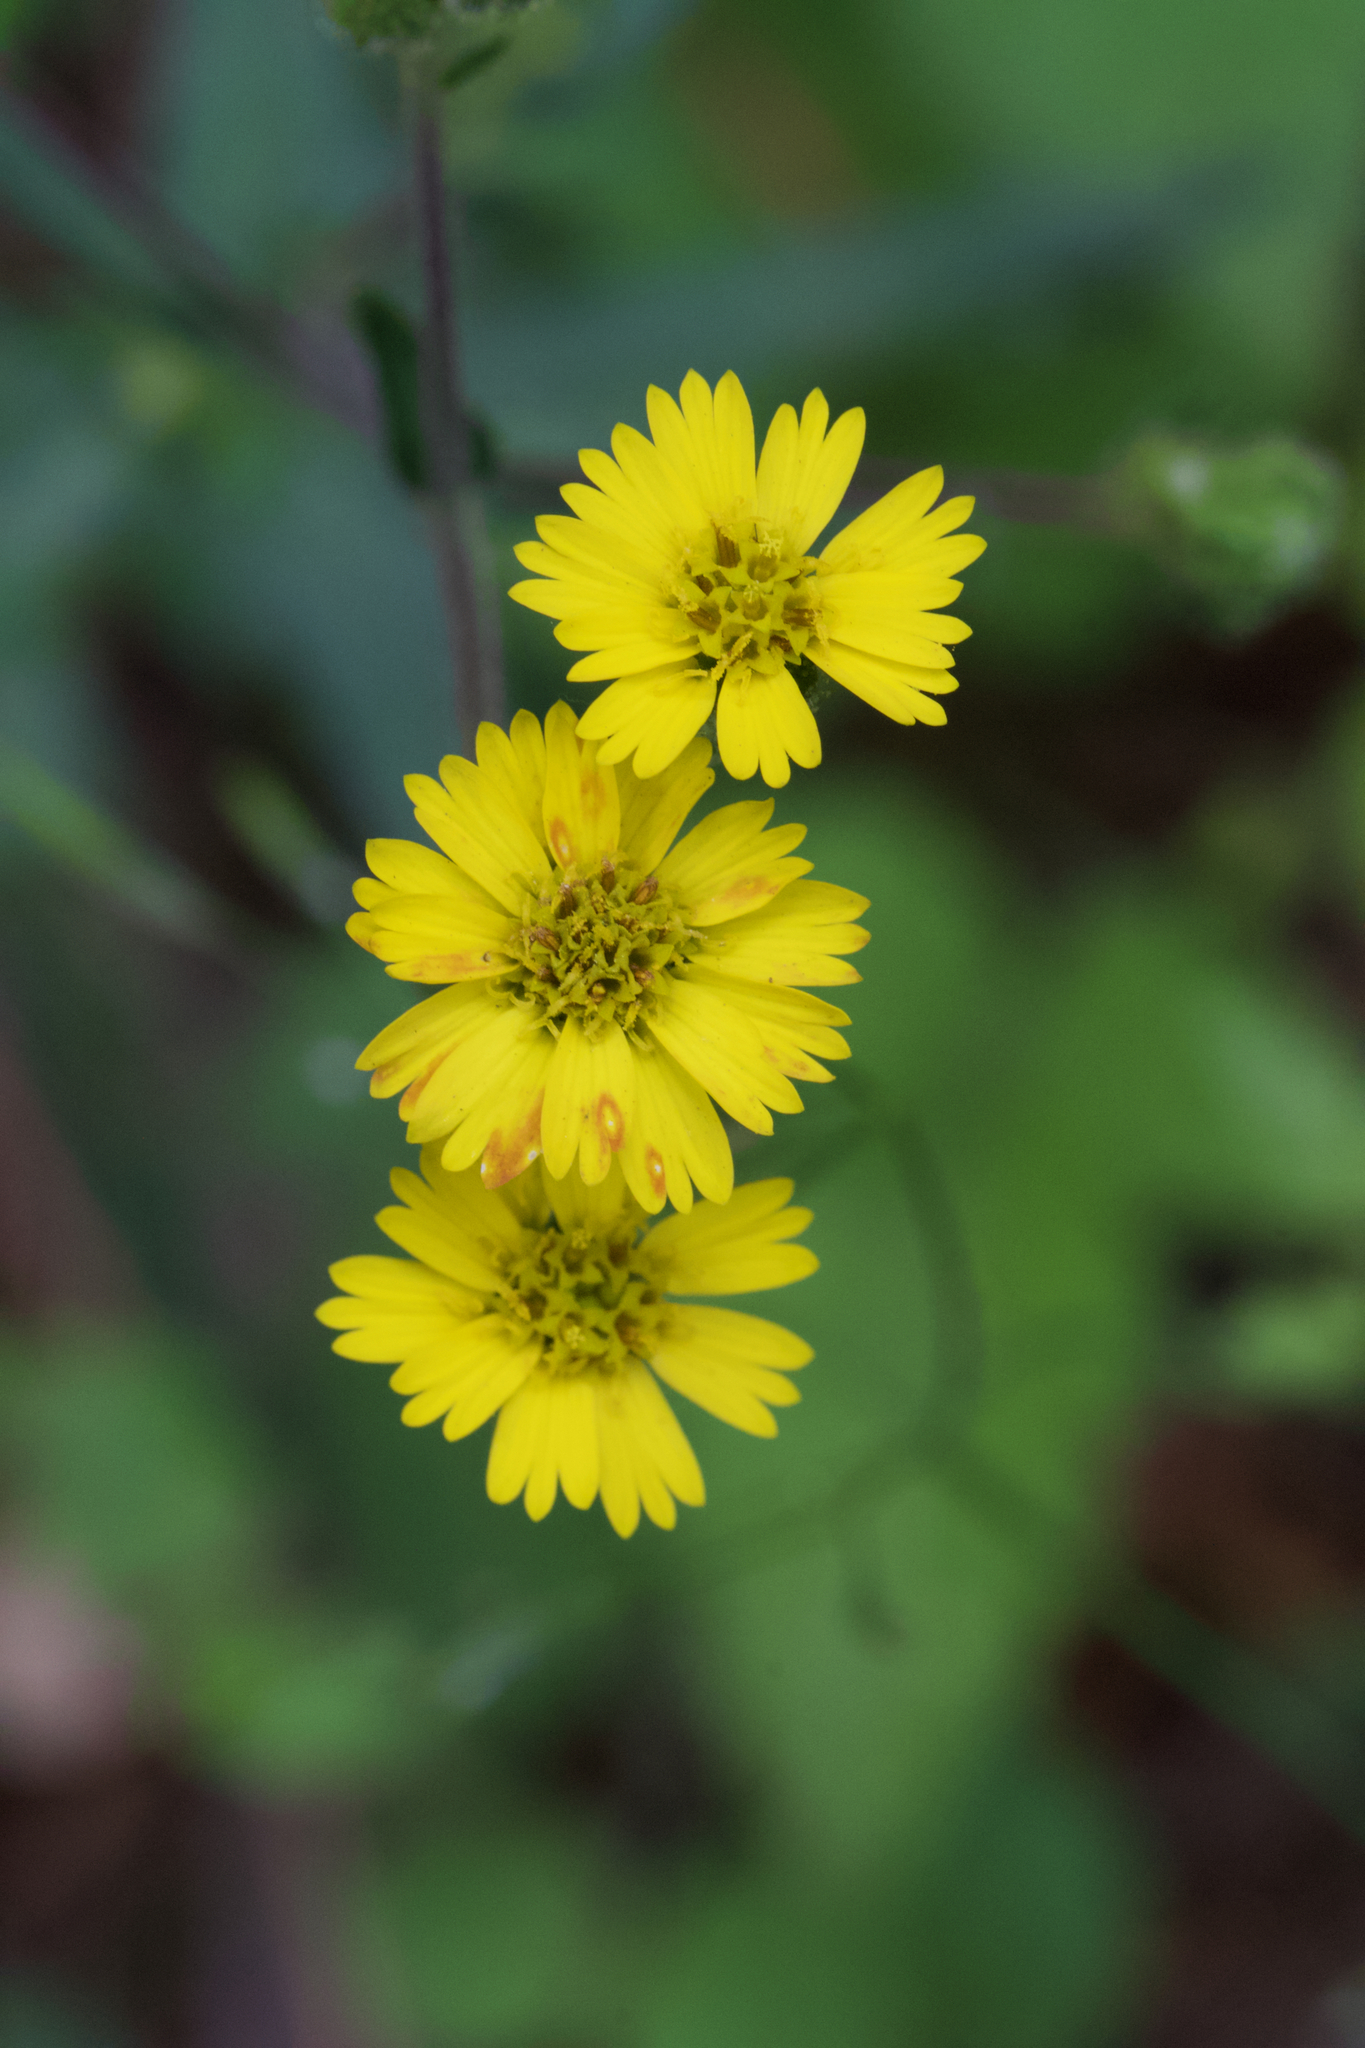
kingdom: Plantae
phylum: Tracheophyta
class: Magnoliopsida
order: Asterales
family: Asteraceae
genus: Anisocarpus
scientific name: Anisocarpus madioides
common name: Woodland madia
